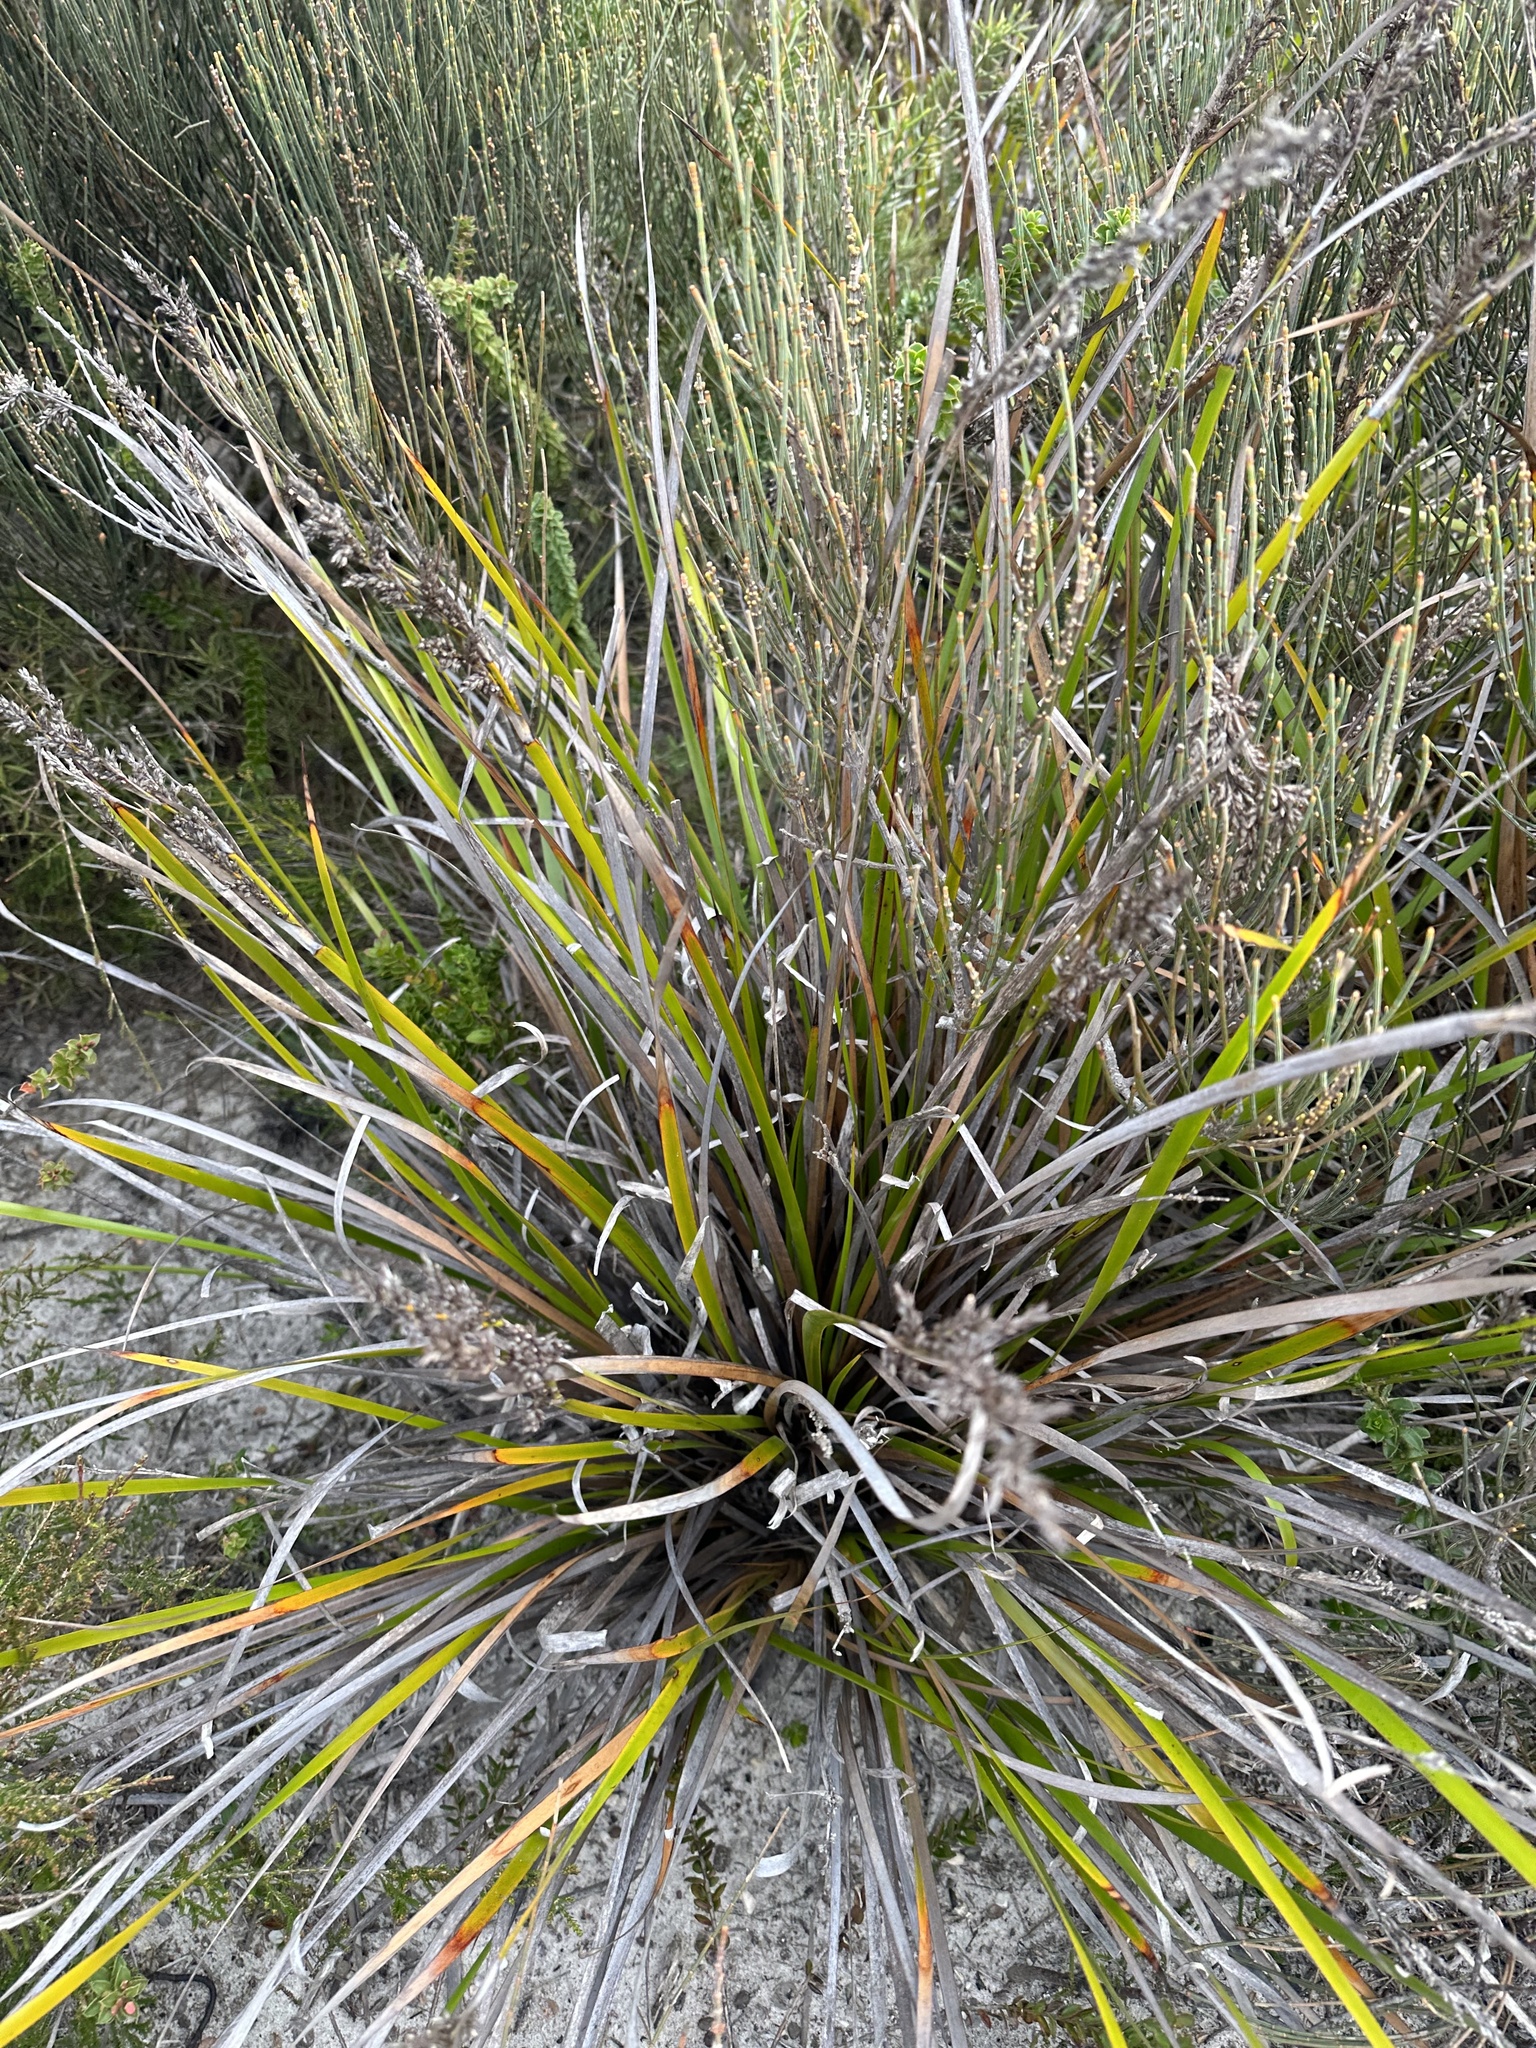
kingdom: Plantae
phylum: Tracheophyta
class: Liliopsida
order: Asparagales
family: Asparagaceae
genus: Lomandra
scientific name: Lomandra longifolia
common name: Longleaf mat-rush
